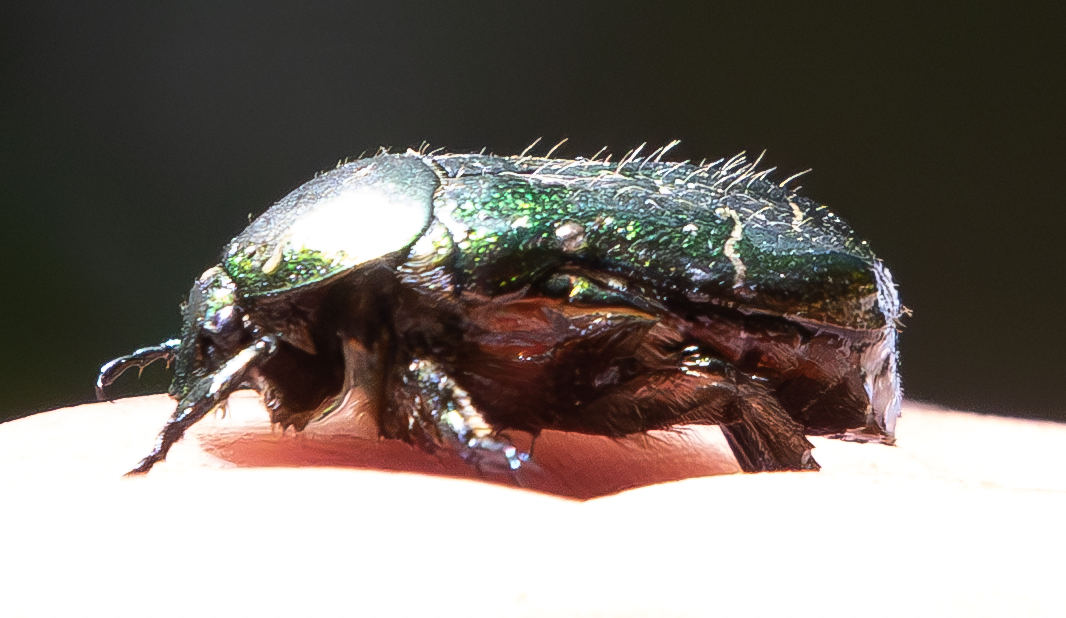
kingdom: Animalia
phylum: Arthropoda
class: Insecta
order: Coleoptera
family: Scarabaeidae
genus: Cetonia
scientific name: Cetonia aurata
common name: Rose chafer
